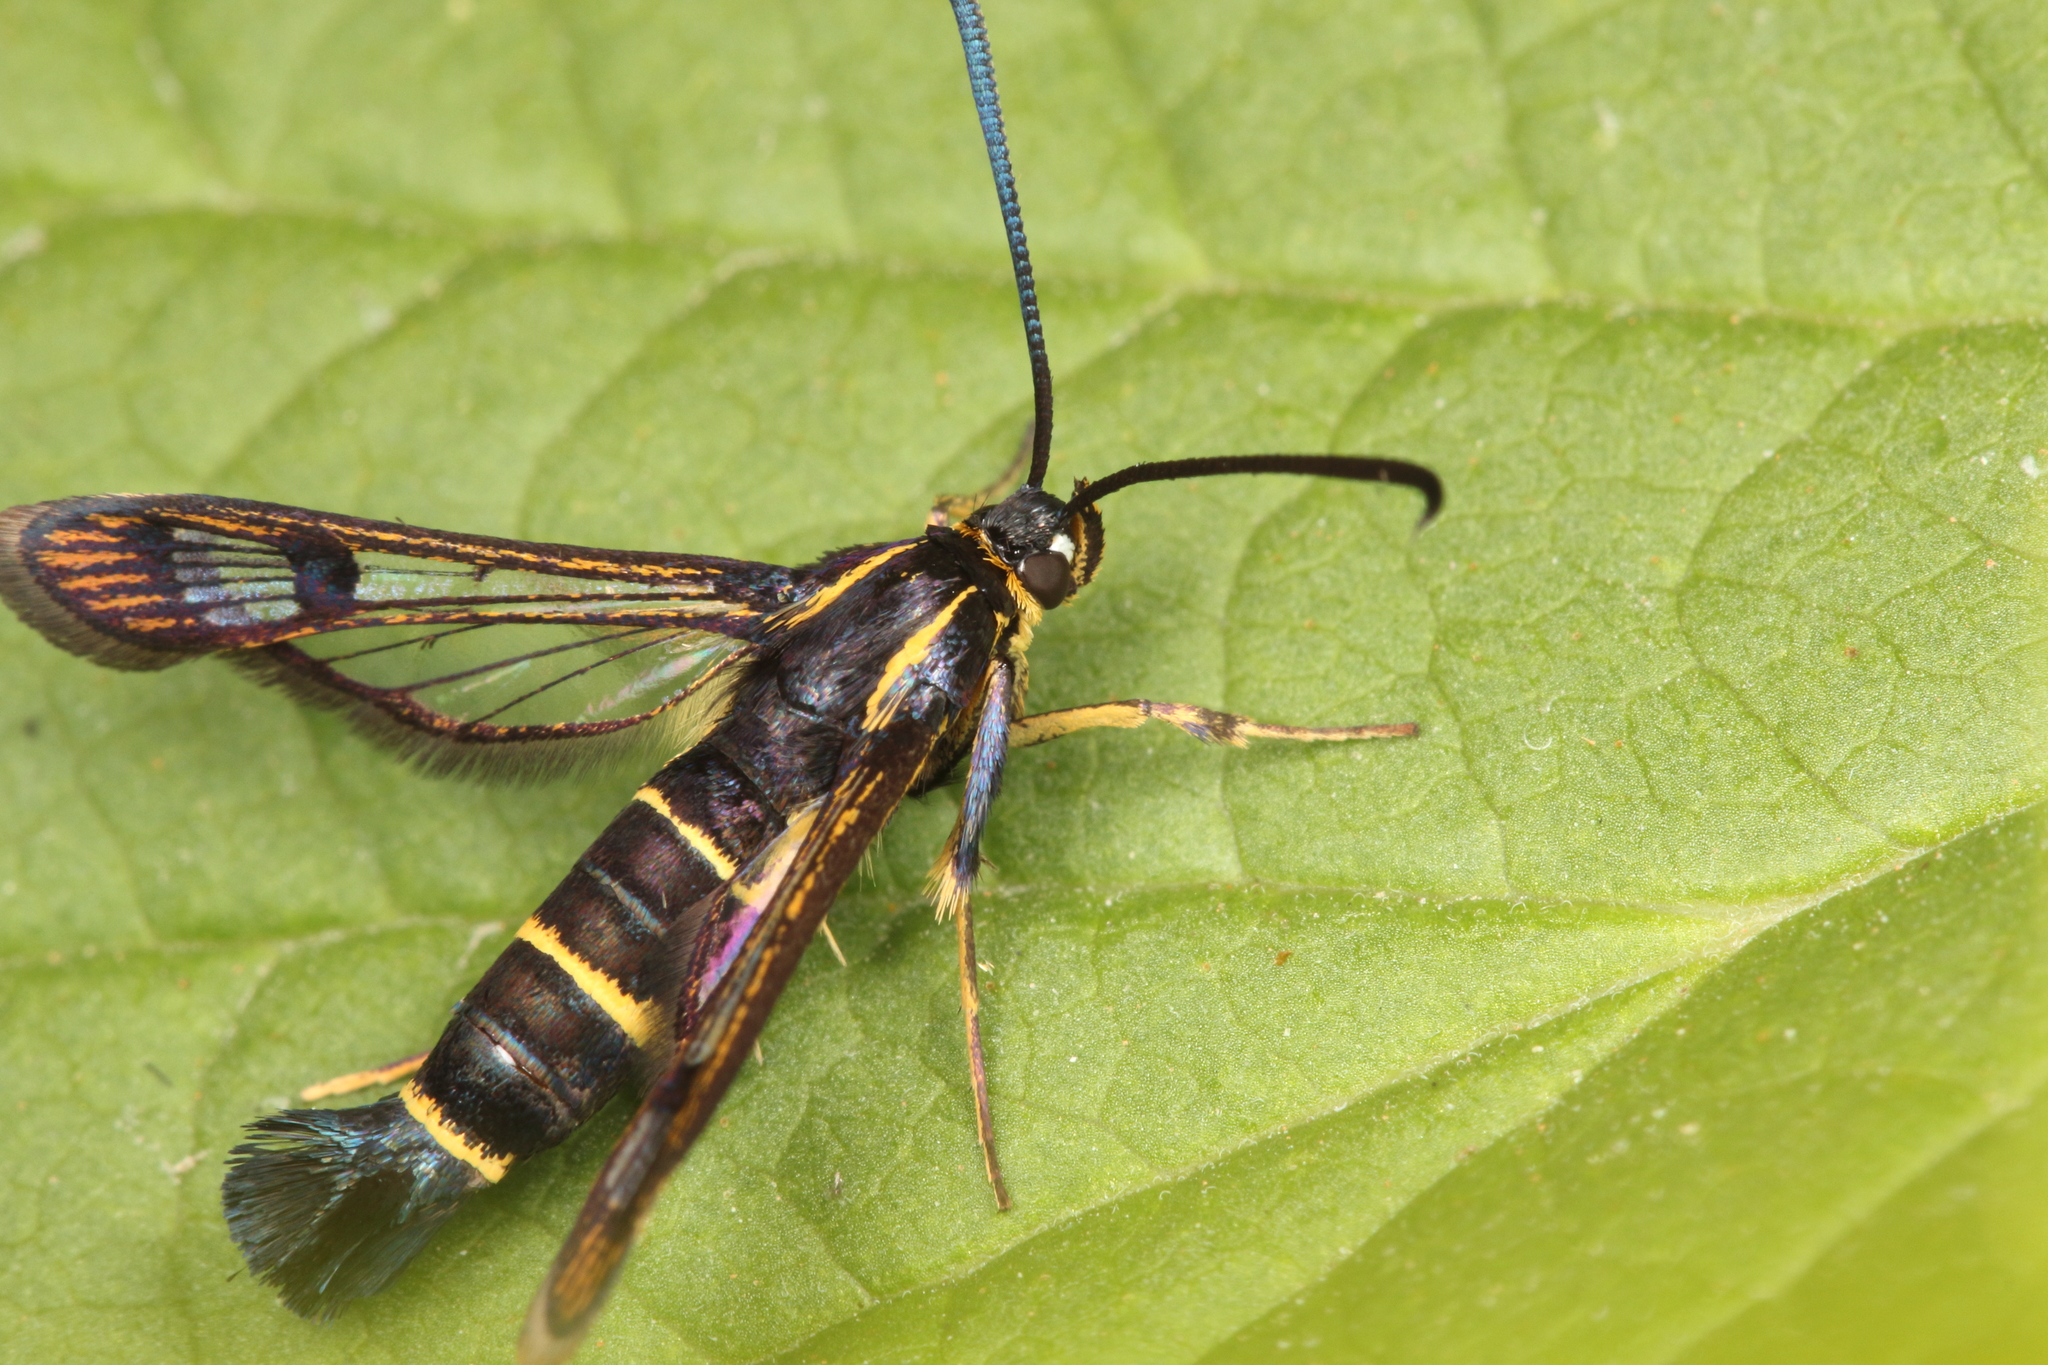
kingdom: Animalia
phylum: Arthropoda
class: Insecta
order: Lepidoptera
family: Sesiidae
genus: Synanthedon
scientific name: Synanthedon tipuliformis
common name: Currant clearwing
